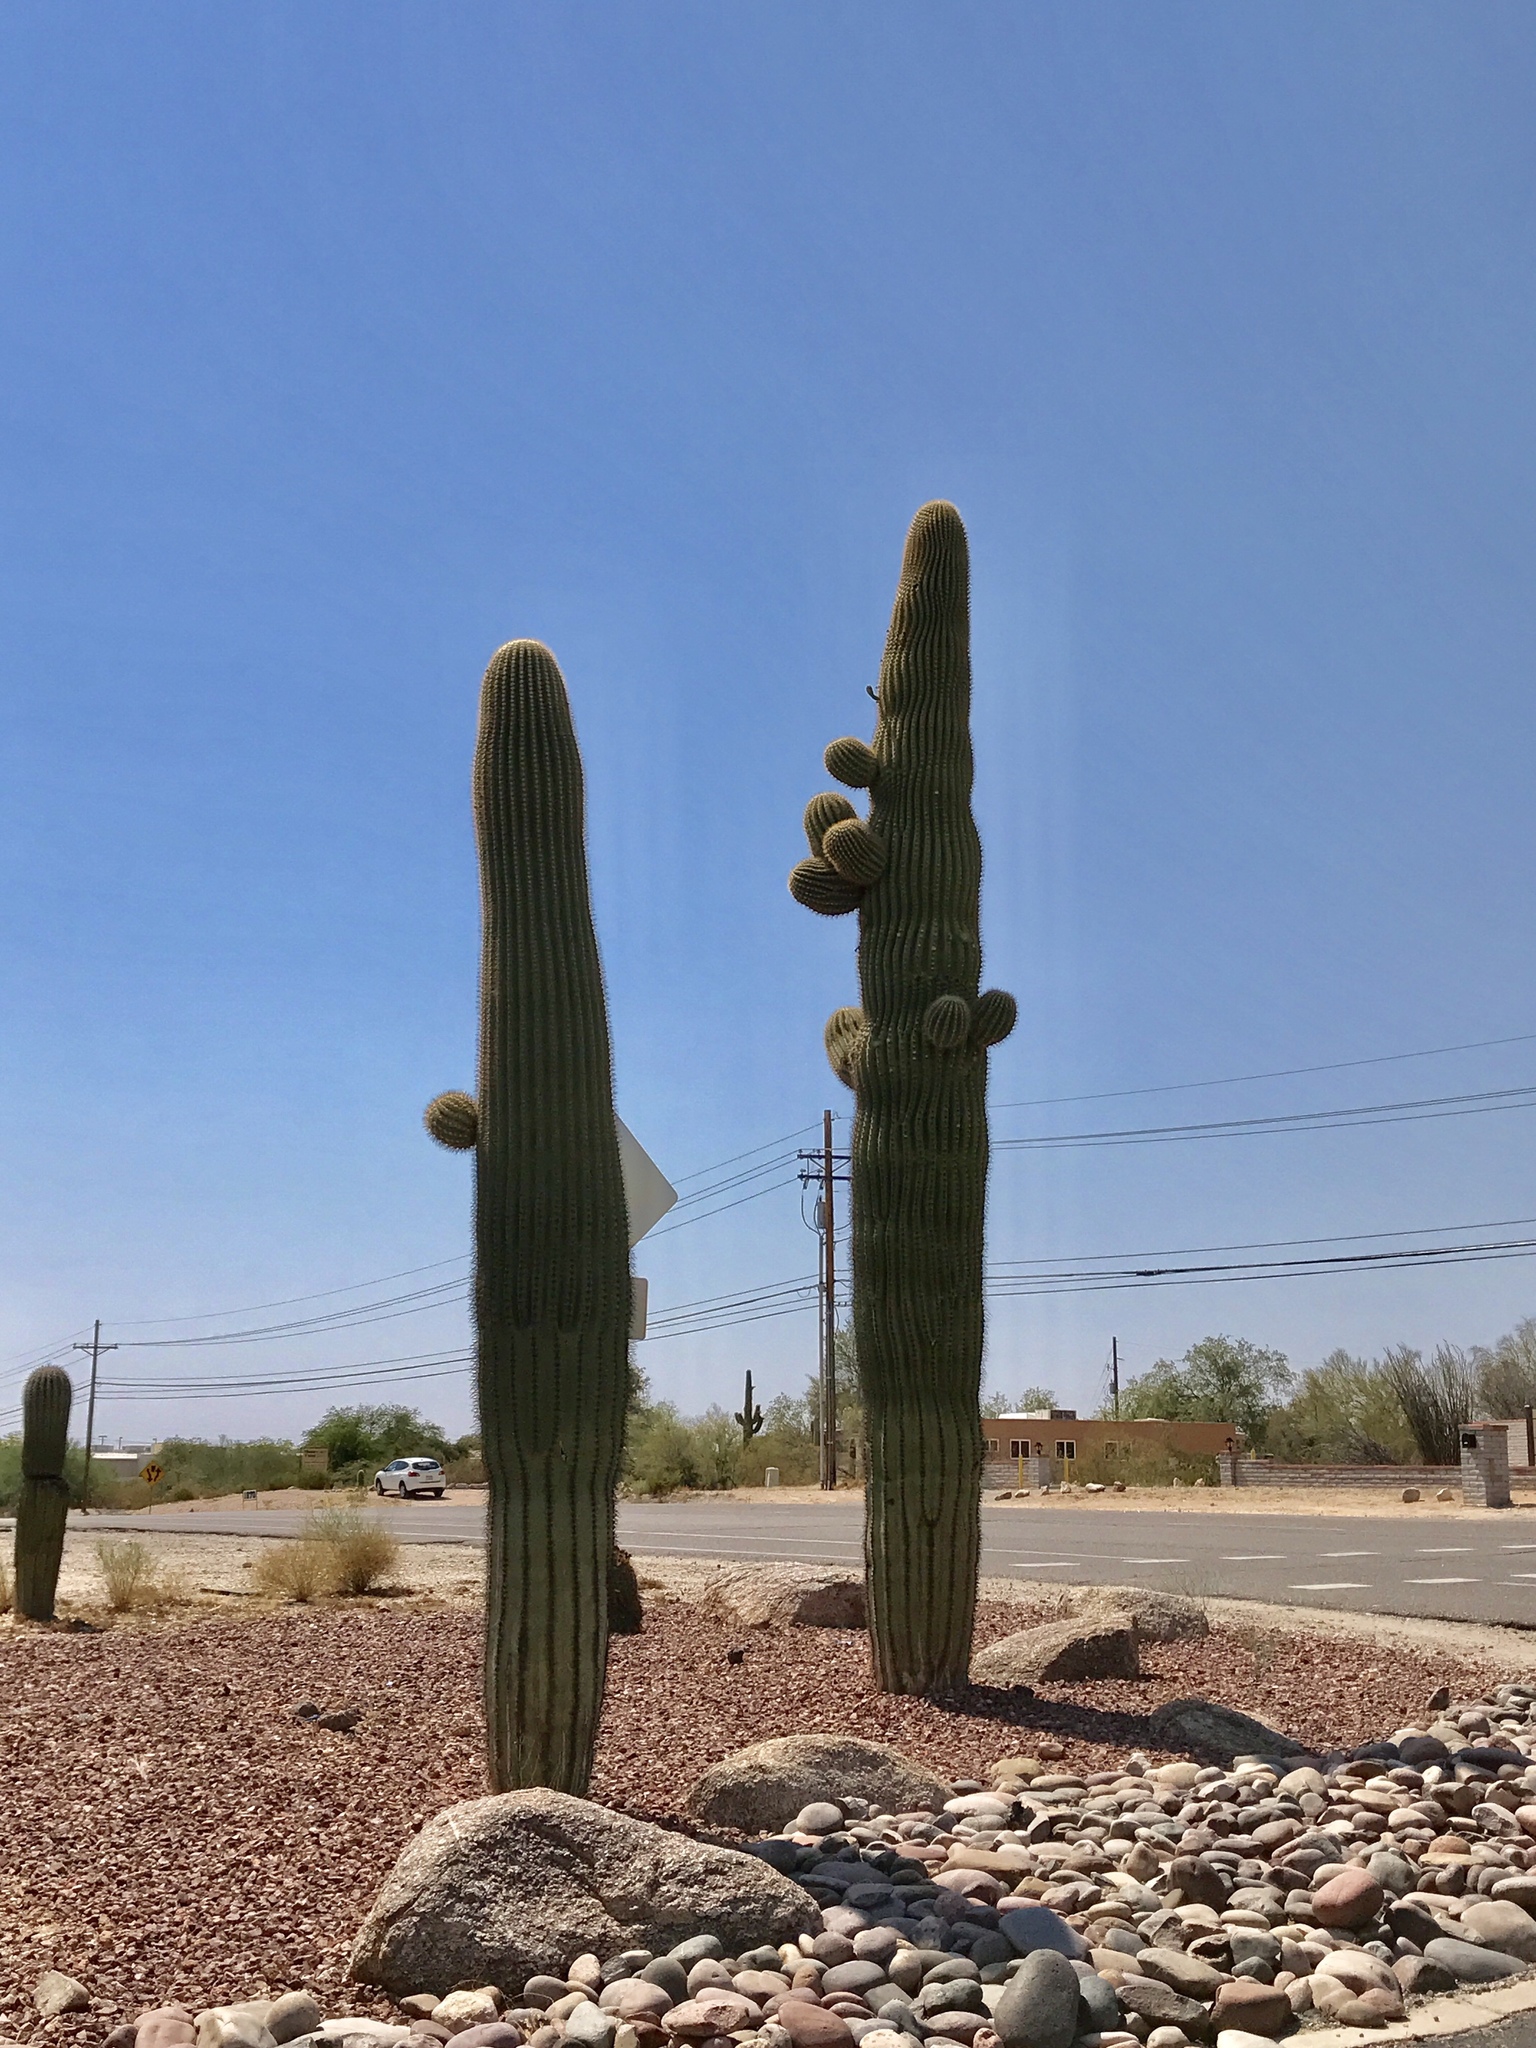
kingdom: Plantae
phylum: Tracheophyta
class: Magnoliopsida
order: Caryophyllales
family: Cactaceae
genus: Carnegiea
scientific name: Carnegiea gigantea
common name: Saguaro
